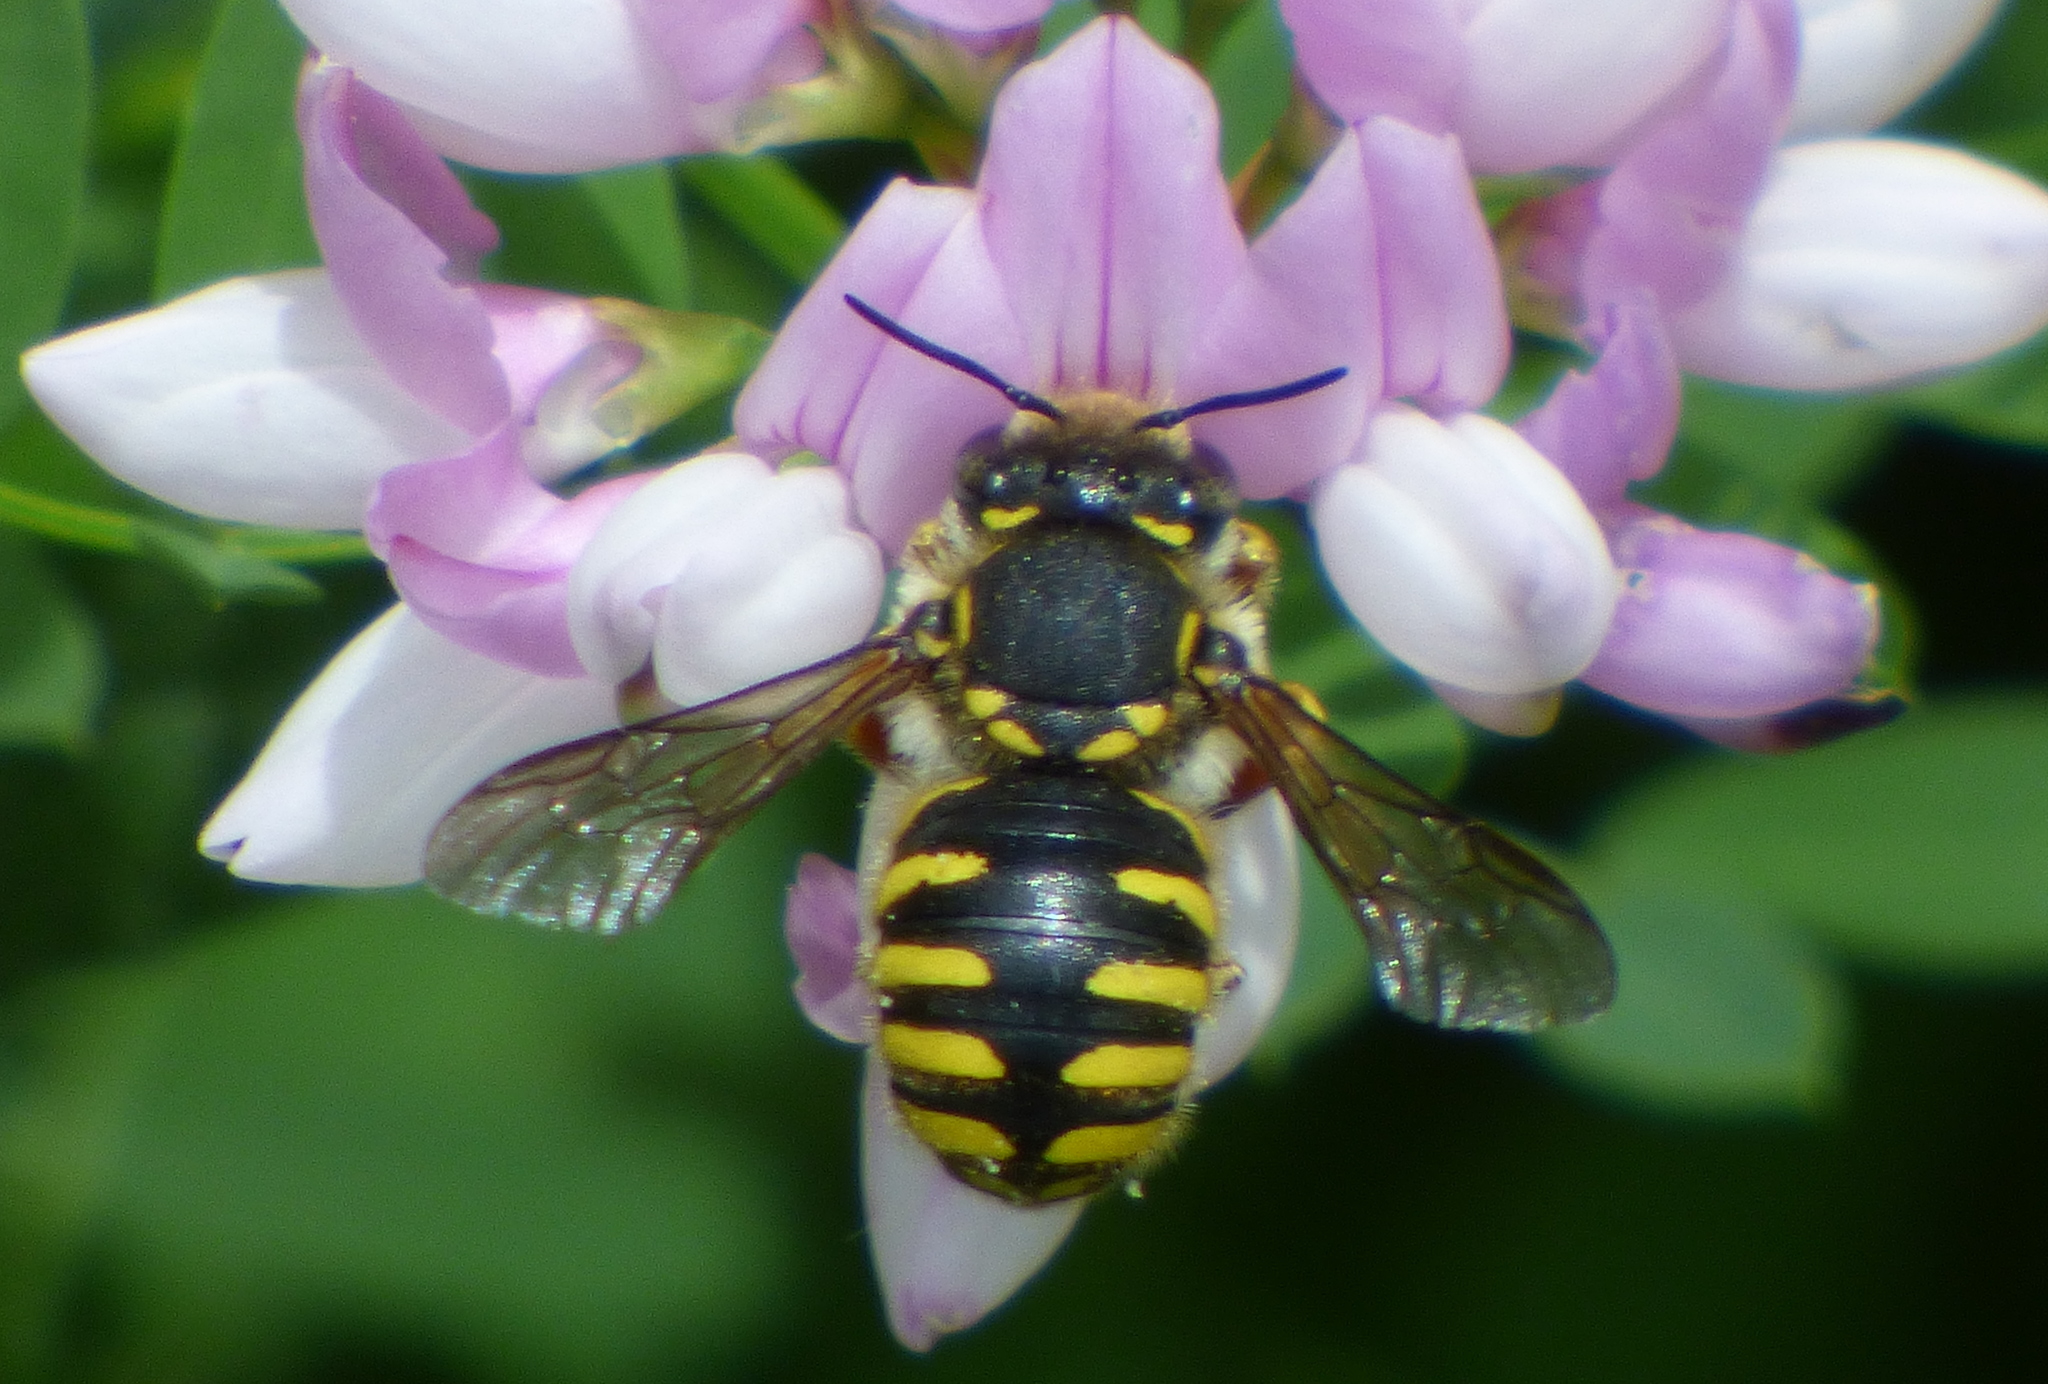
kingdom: Animalia
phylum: Arthropoda
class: Insecta
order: Hymenoptera
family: Megachilidae
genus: Anthidium
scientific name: Anthidium manicatum
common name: Wool carder bee
